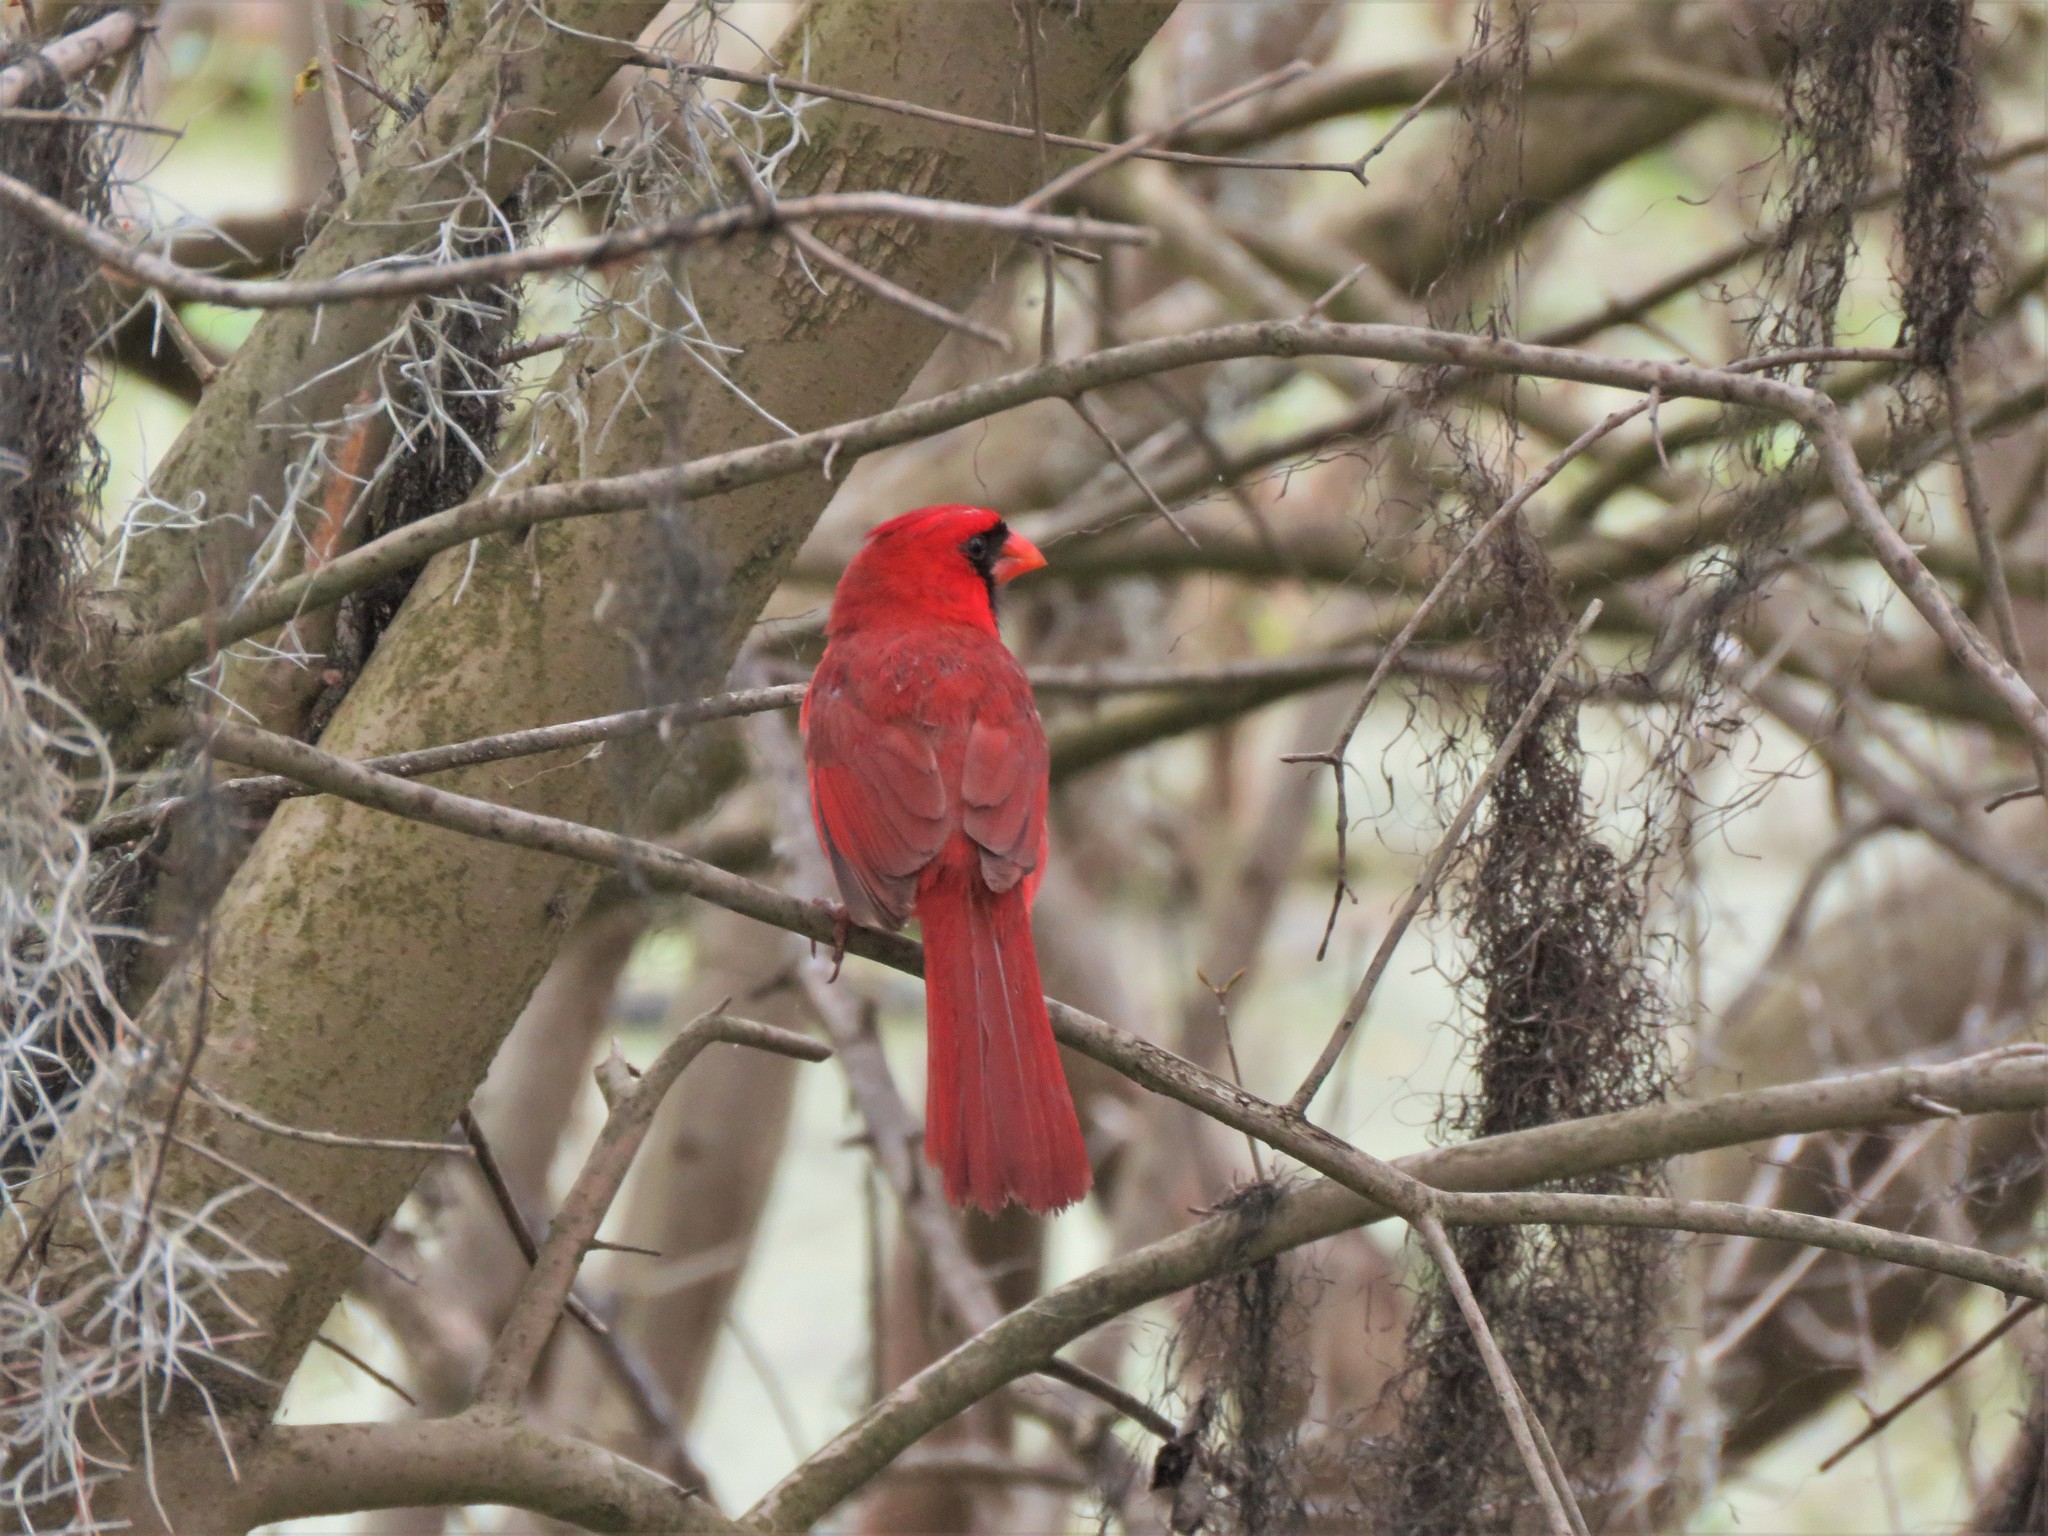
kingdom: Animalia
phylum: Chordata
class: Aves
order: Passeriformes
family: Cardinalidae
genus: Cardinalis
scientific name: Cardinalis cardinalis
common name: Northern cardinal
